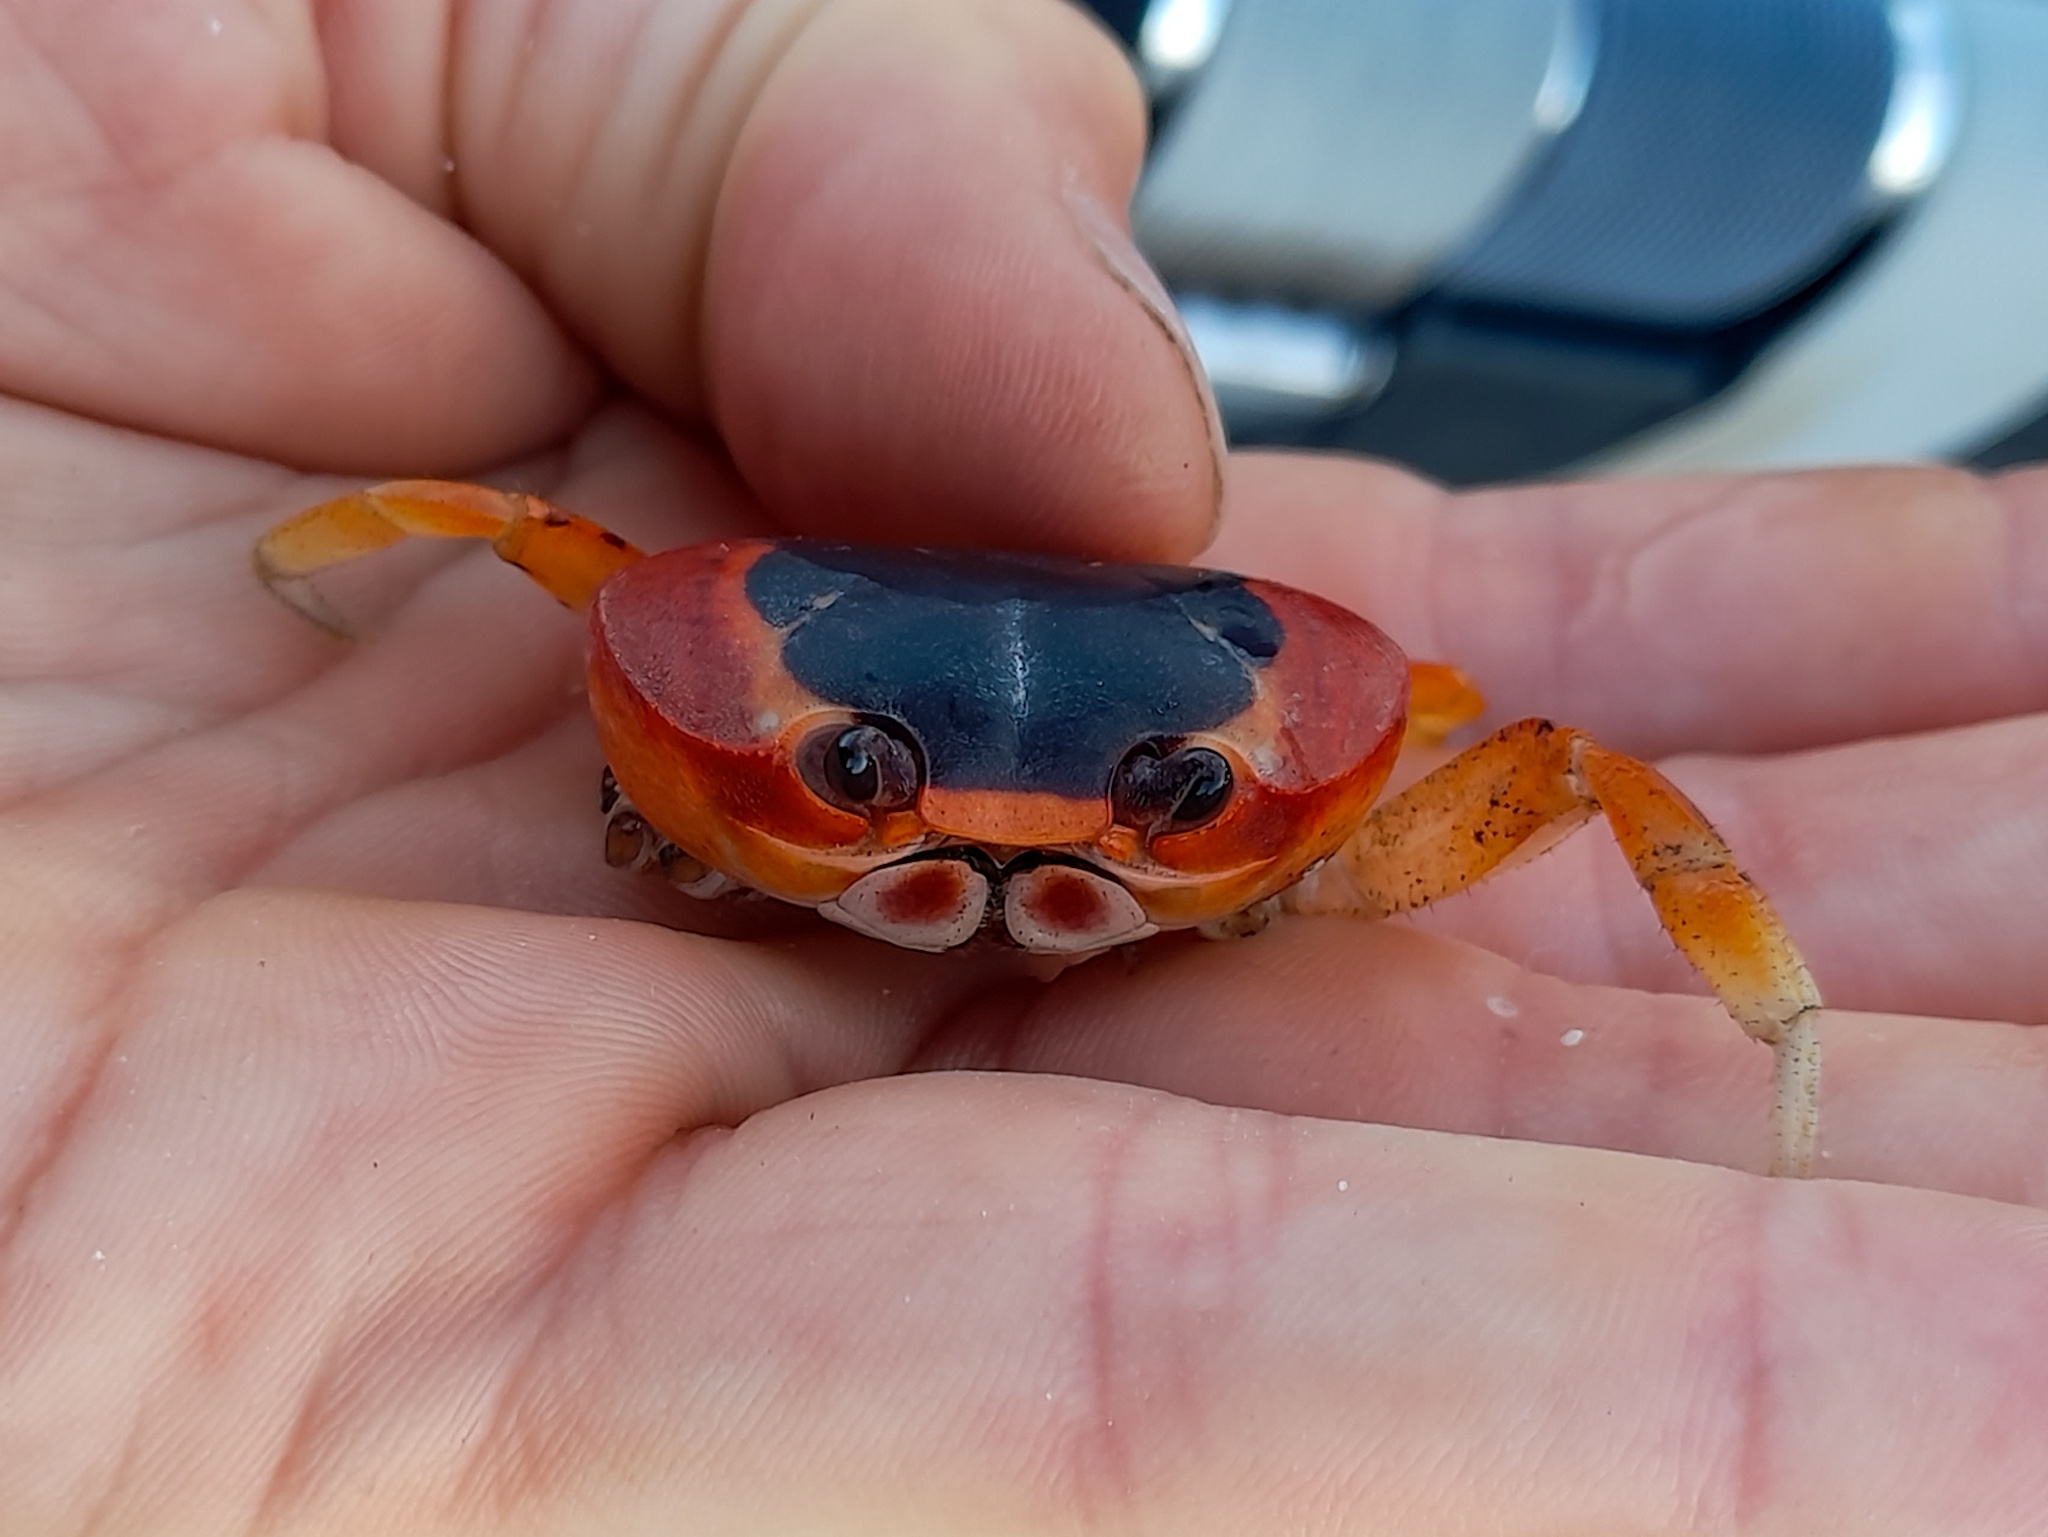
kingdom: Animalia
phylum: Arthropoda
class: Malacostraca
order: Decapoda
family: Gecarcinidae
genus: Gecarcinus
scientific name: Gecarcinus lateralis
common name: Bermuda land crab
